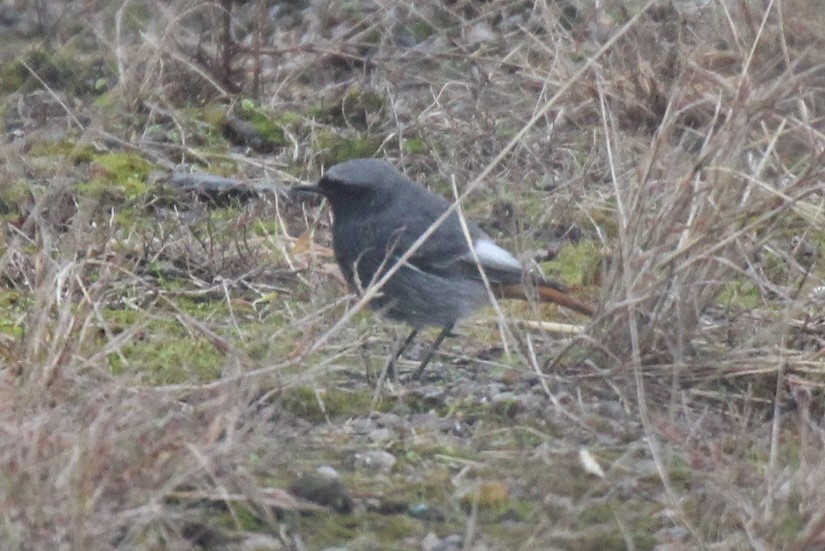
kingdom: Animalia
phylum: Chordata
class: Aves
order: Passeriformes
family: Muscicapidae
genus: Phoenicurus
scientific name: Phoenicurus ochruros
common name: Black redstart
